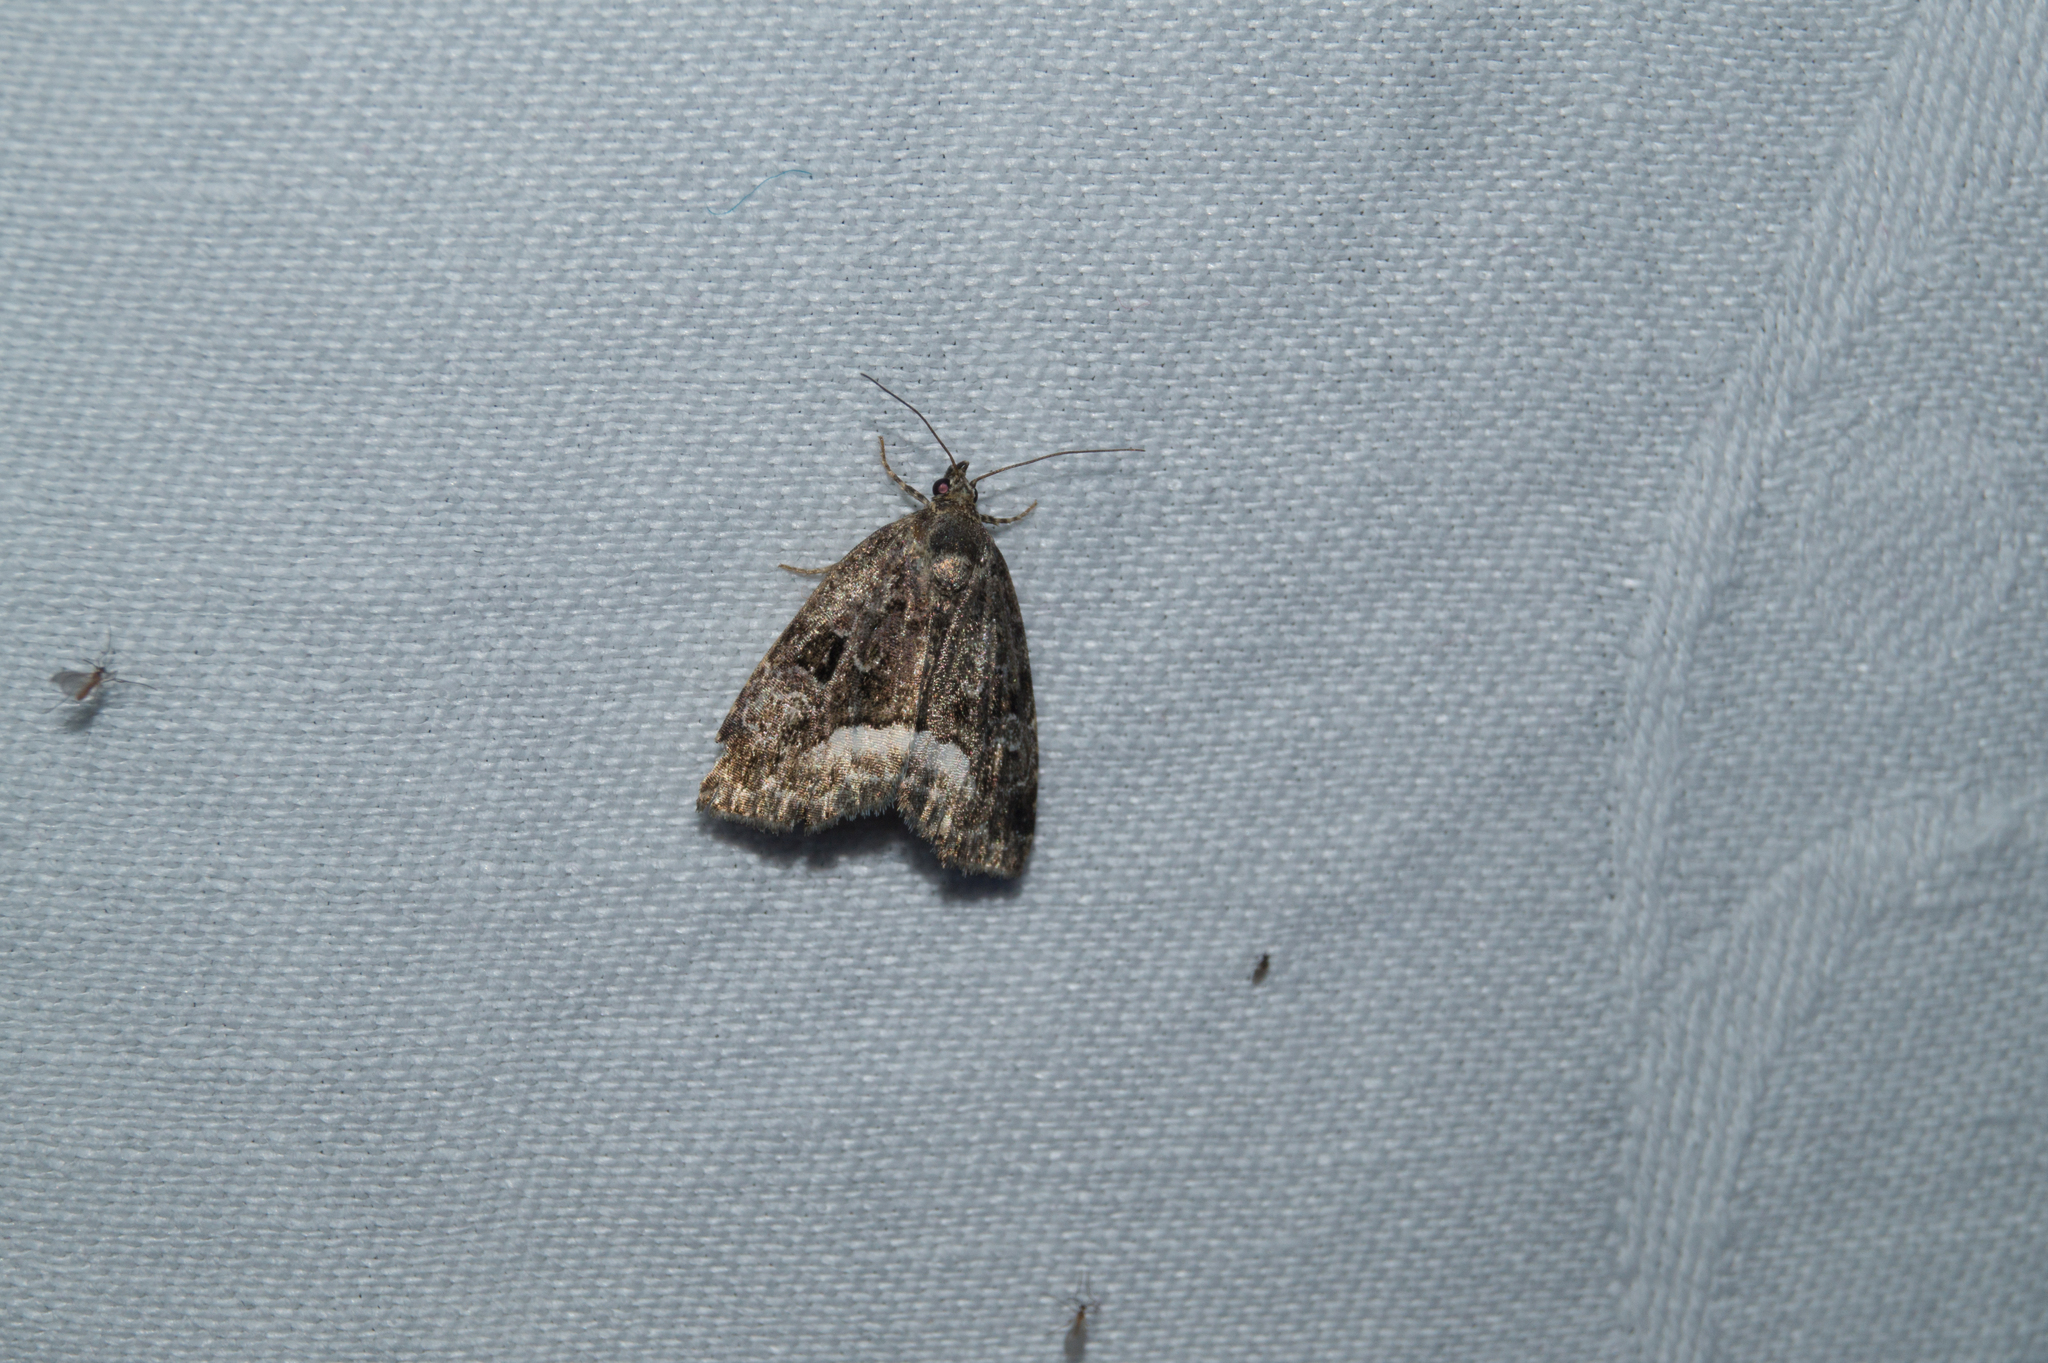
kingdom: Animalia
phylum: Arthropoda
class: Insecta
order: Lepidoptera
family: Noctuidae
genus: Deltote
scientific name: Deltote pygarga
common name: Marbled white spot
